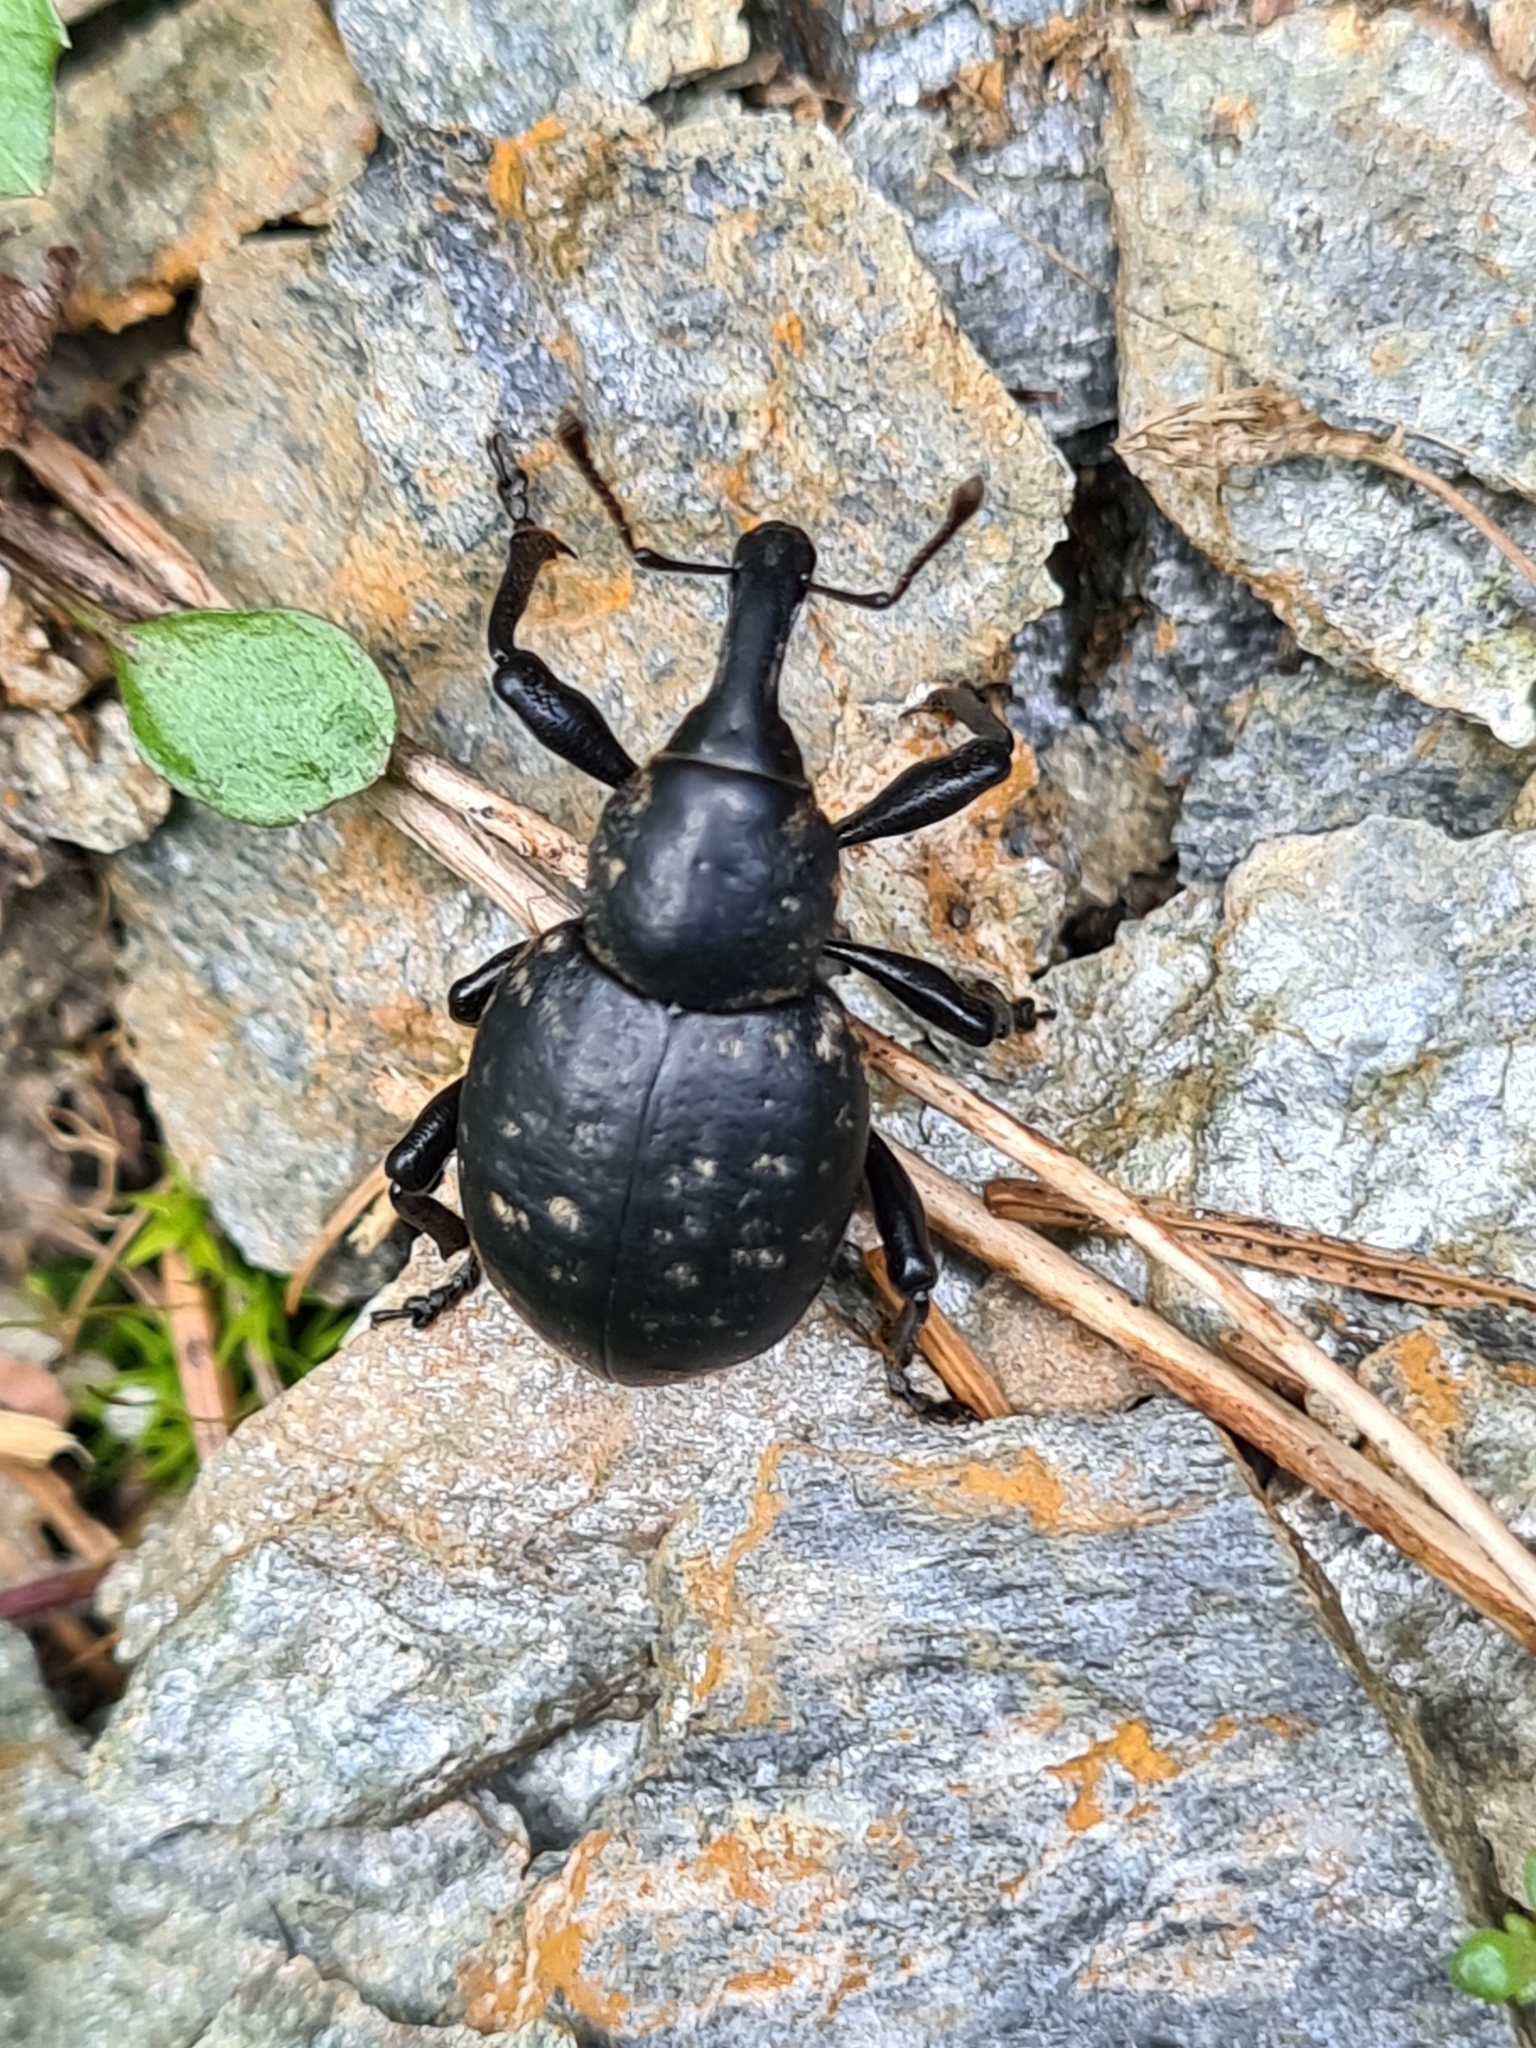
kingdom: Animalia
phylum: Arthropoda
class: Insecta
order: Coleoptera
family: Curculionidae
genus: Liparus
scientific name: Liparus germanus
